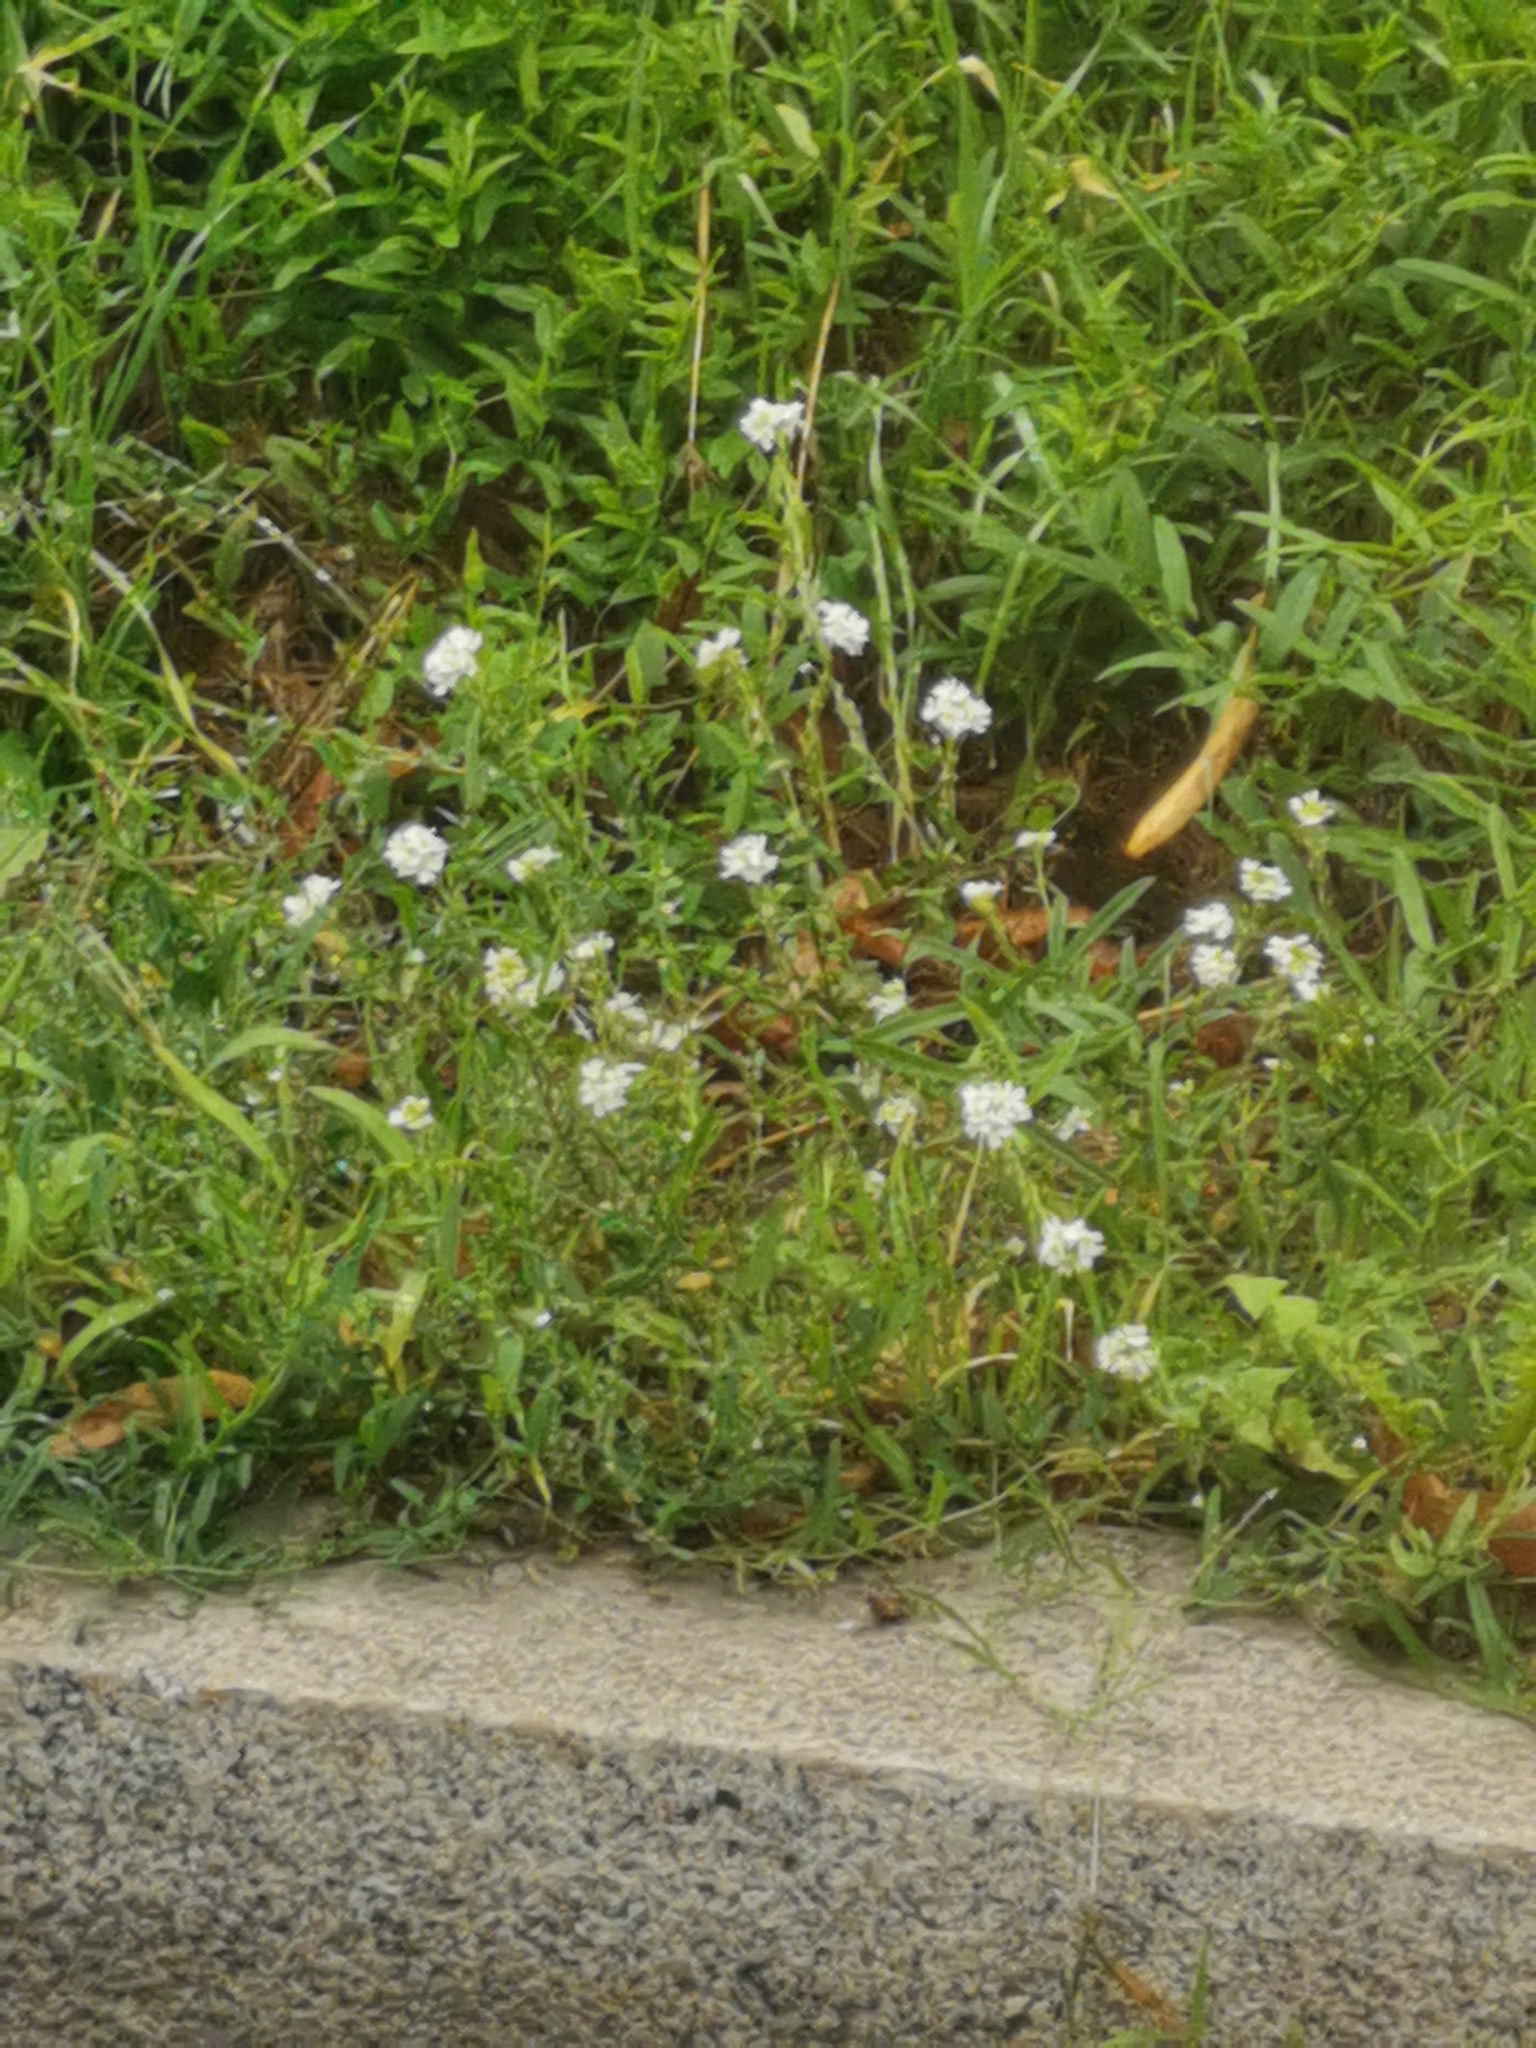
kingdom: Plantae
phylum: Tracheophyta
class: Magnoliopsida
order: Brassicales
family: Brassicaceae
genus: Berteroa
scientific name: Berteroa incana
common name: Hoary alison
